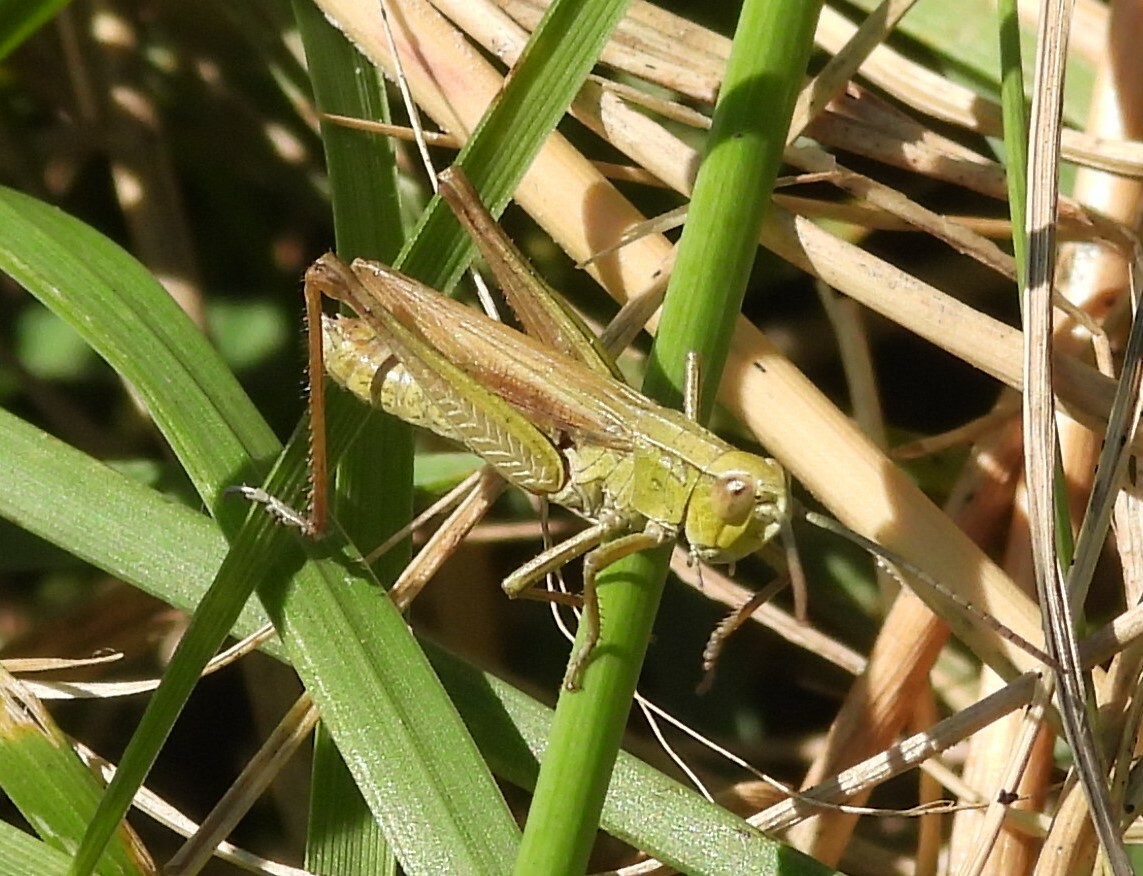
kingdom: Animalia
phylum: Arthropoda
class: Insecta
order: Orthoptera
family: Acrididae
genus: Chorthippus
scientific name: Chorthippus albomarginatus
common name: Lesser marsh grasshopper
